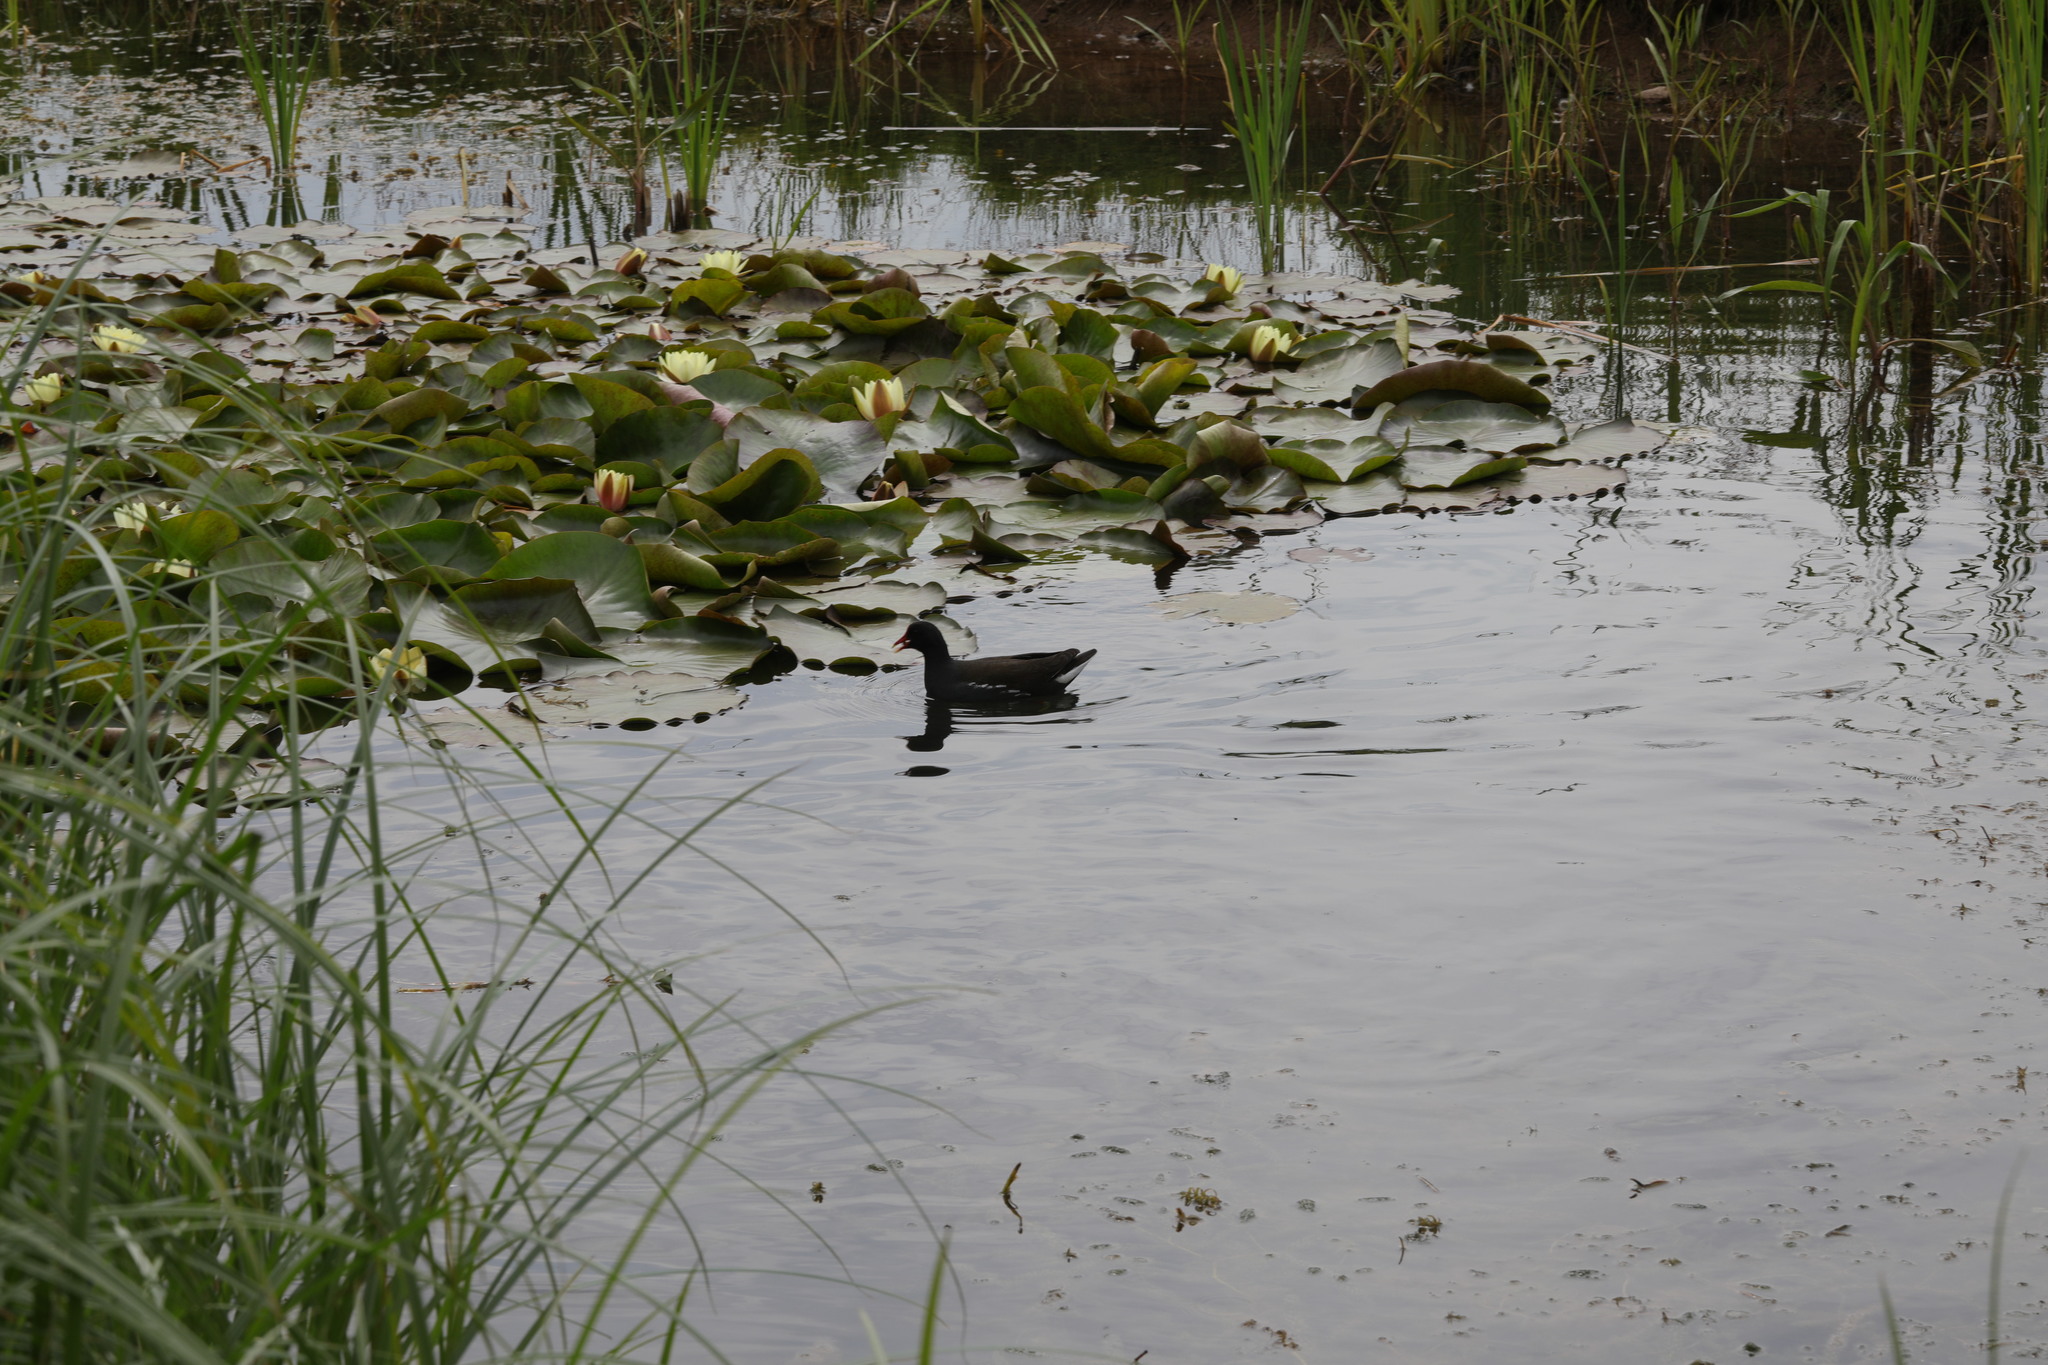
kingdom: Animalia
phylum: Chordata
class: Aves
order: Gruiformes
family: Rallidae
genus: Gallinula
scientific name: Gallinula chloropus
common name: Common moorhen
